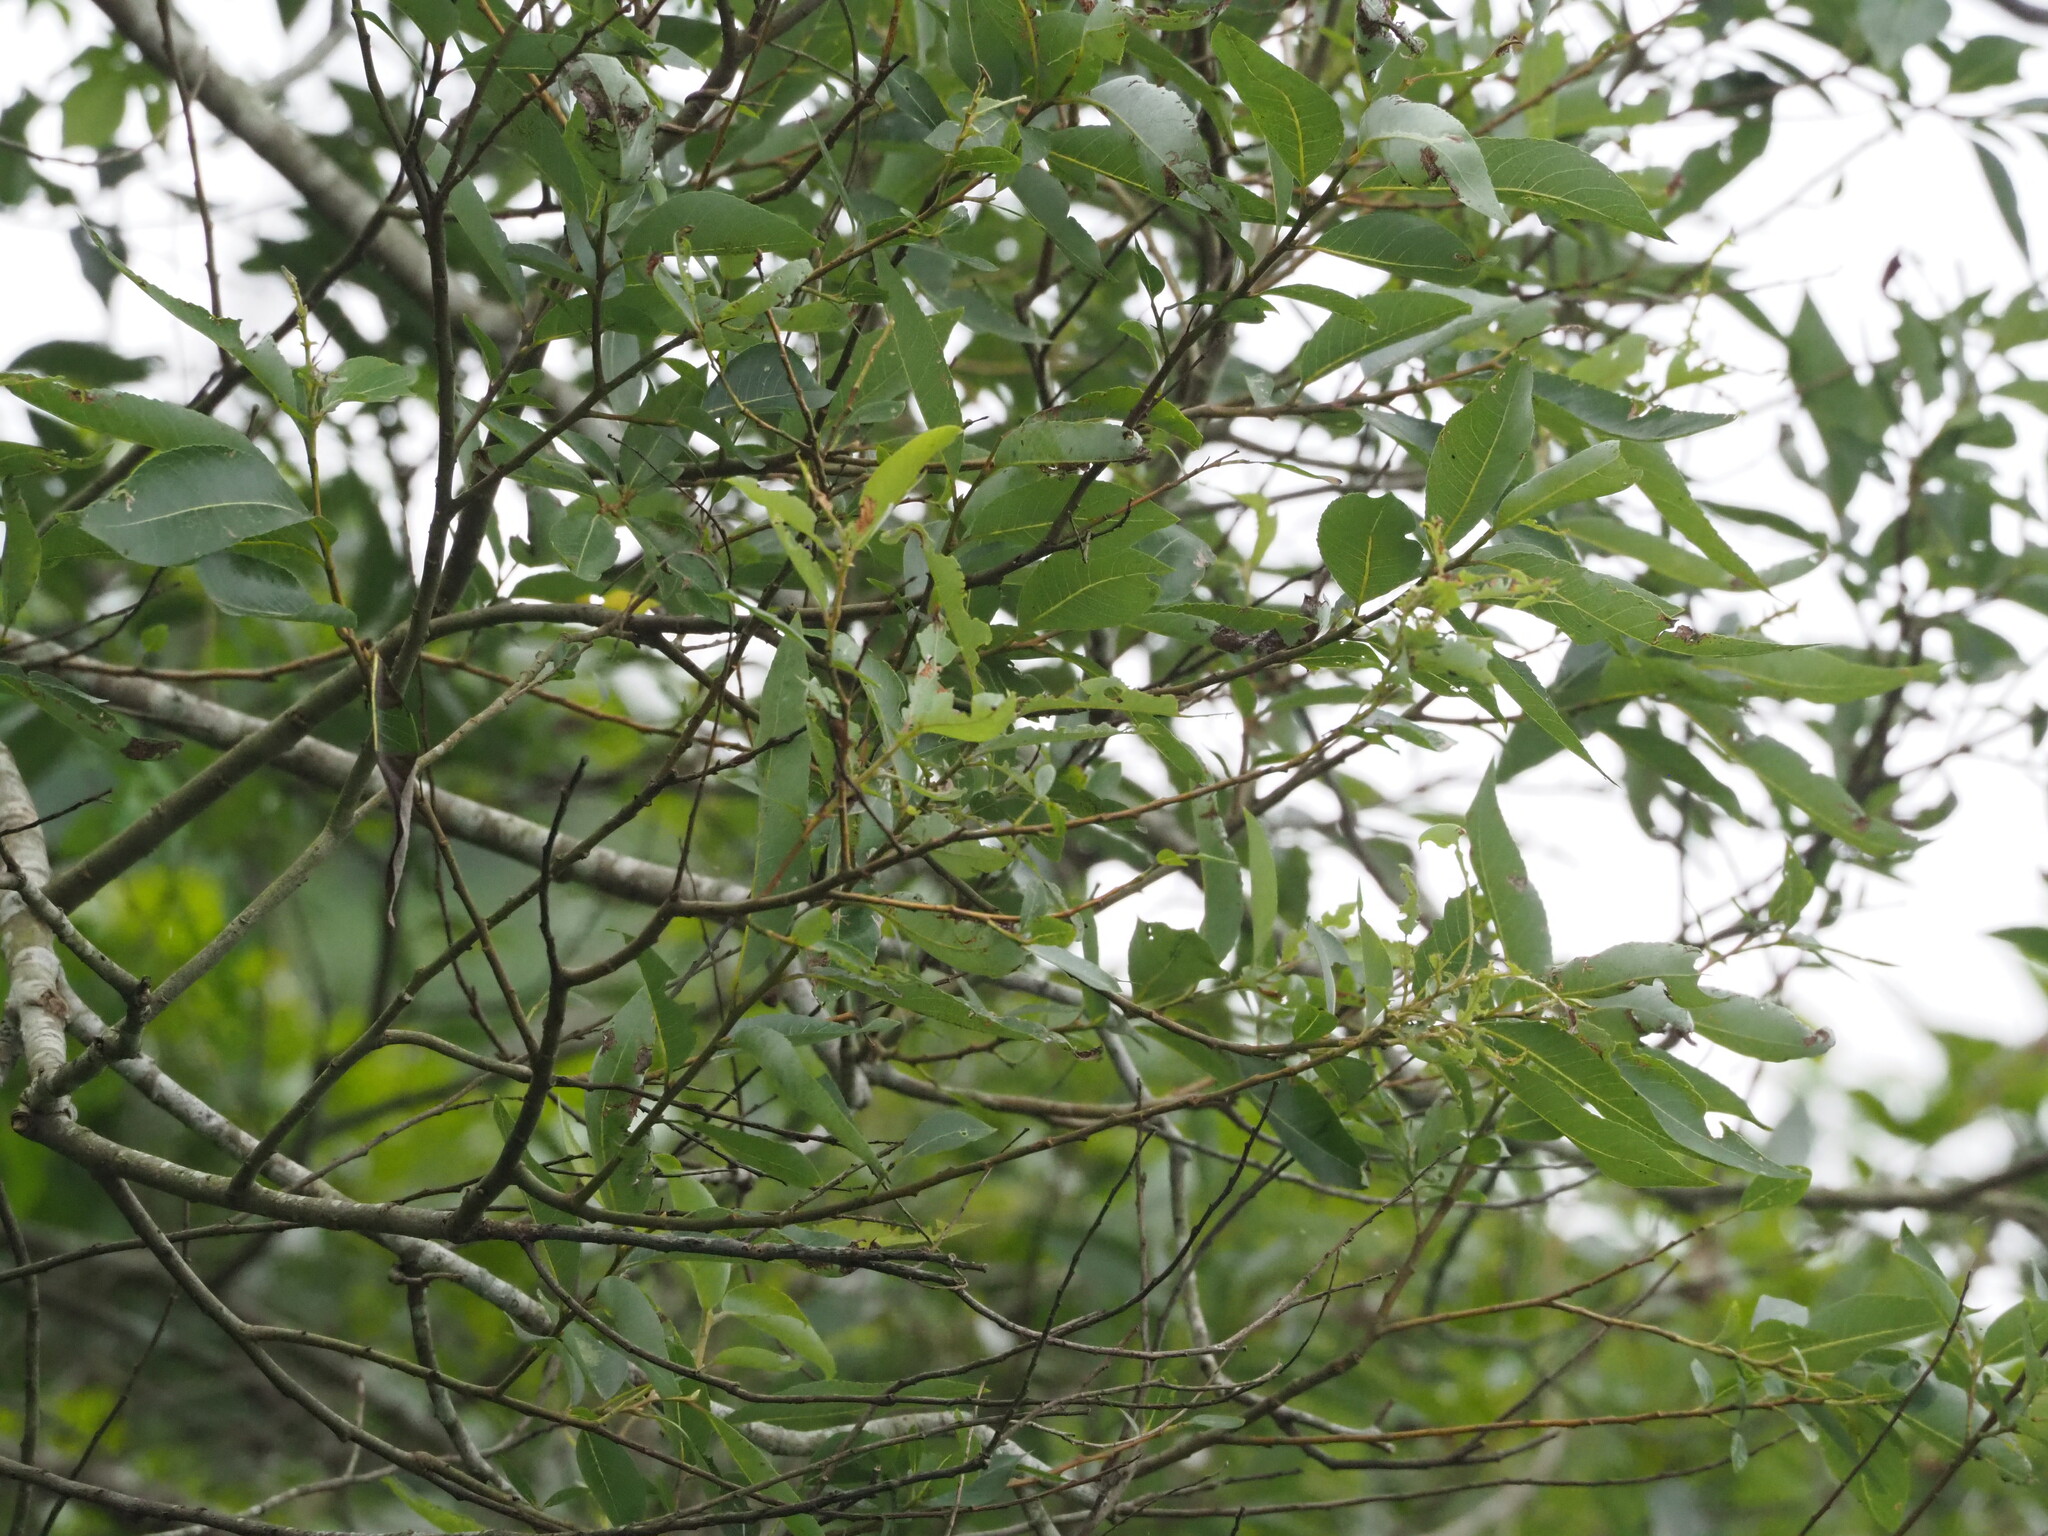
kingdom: Plantae
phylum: Tracheophyta
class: Magnoliopsida
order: Malpighiales
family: Salicaceae
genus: Salix
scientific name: Salix mesnyi
